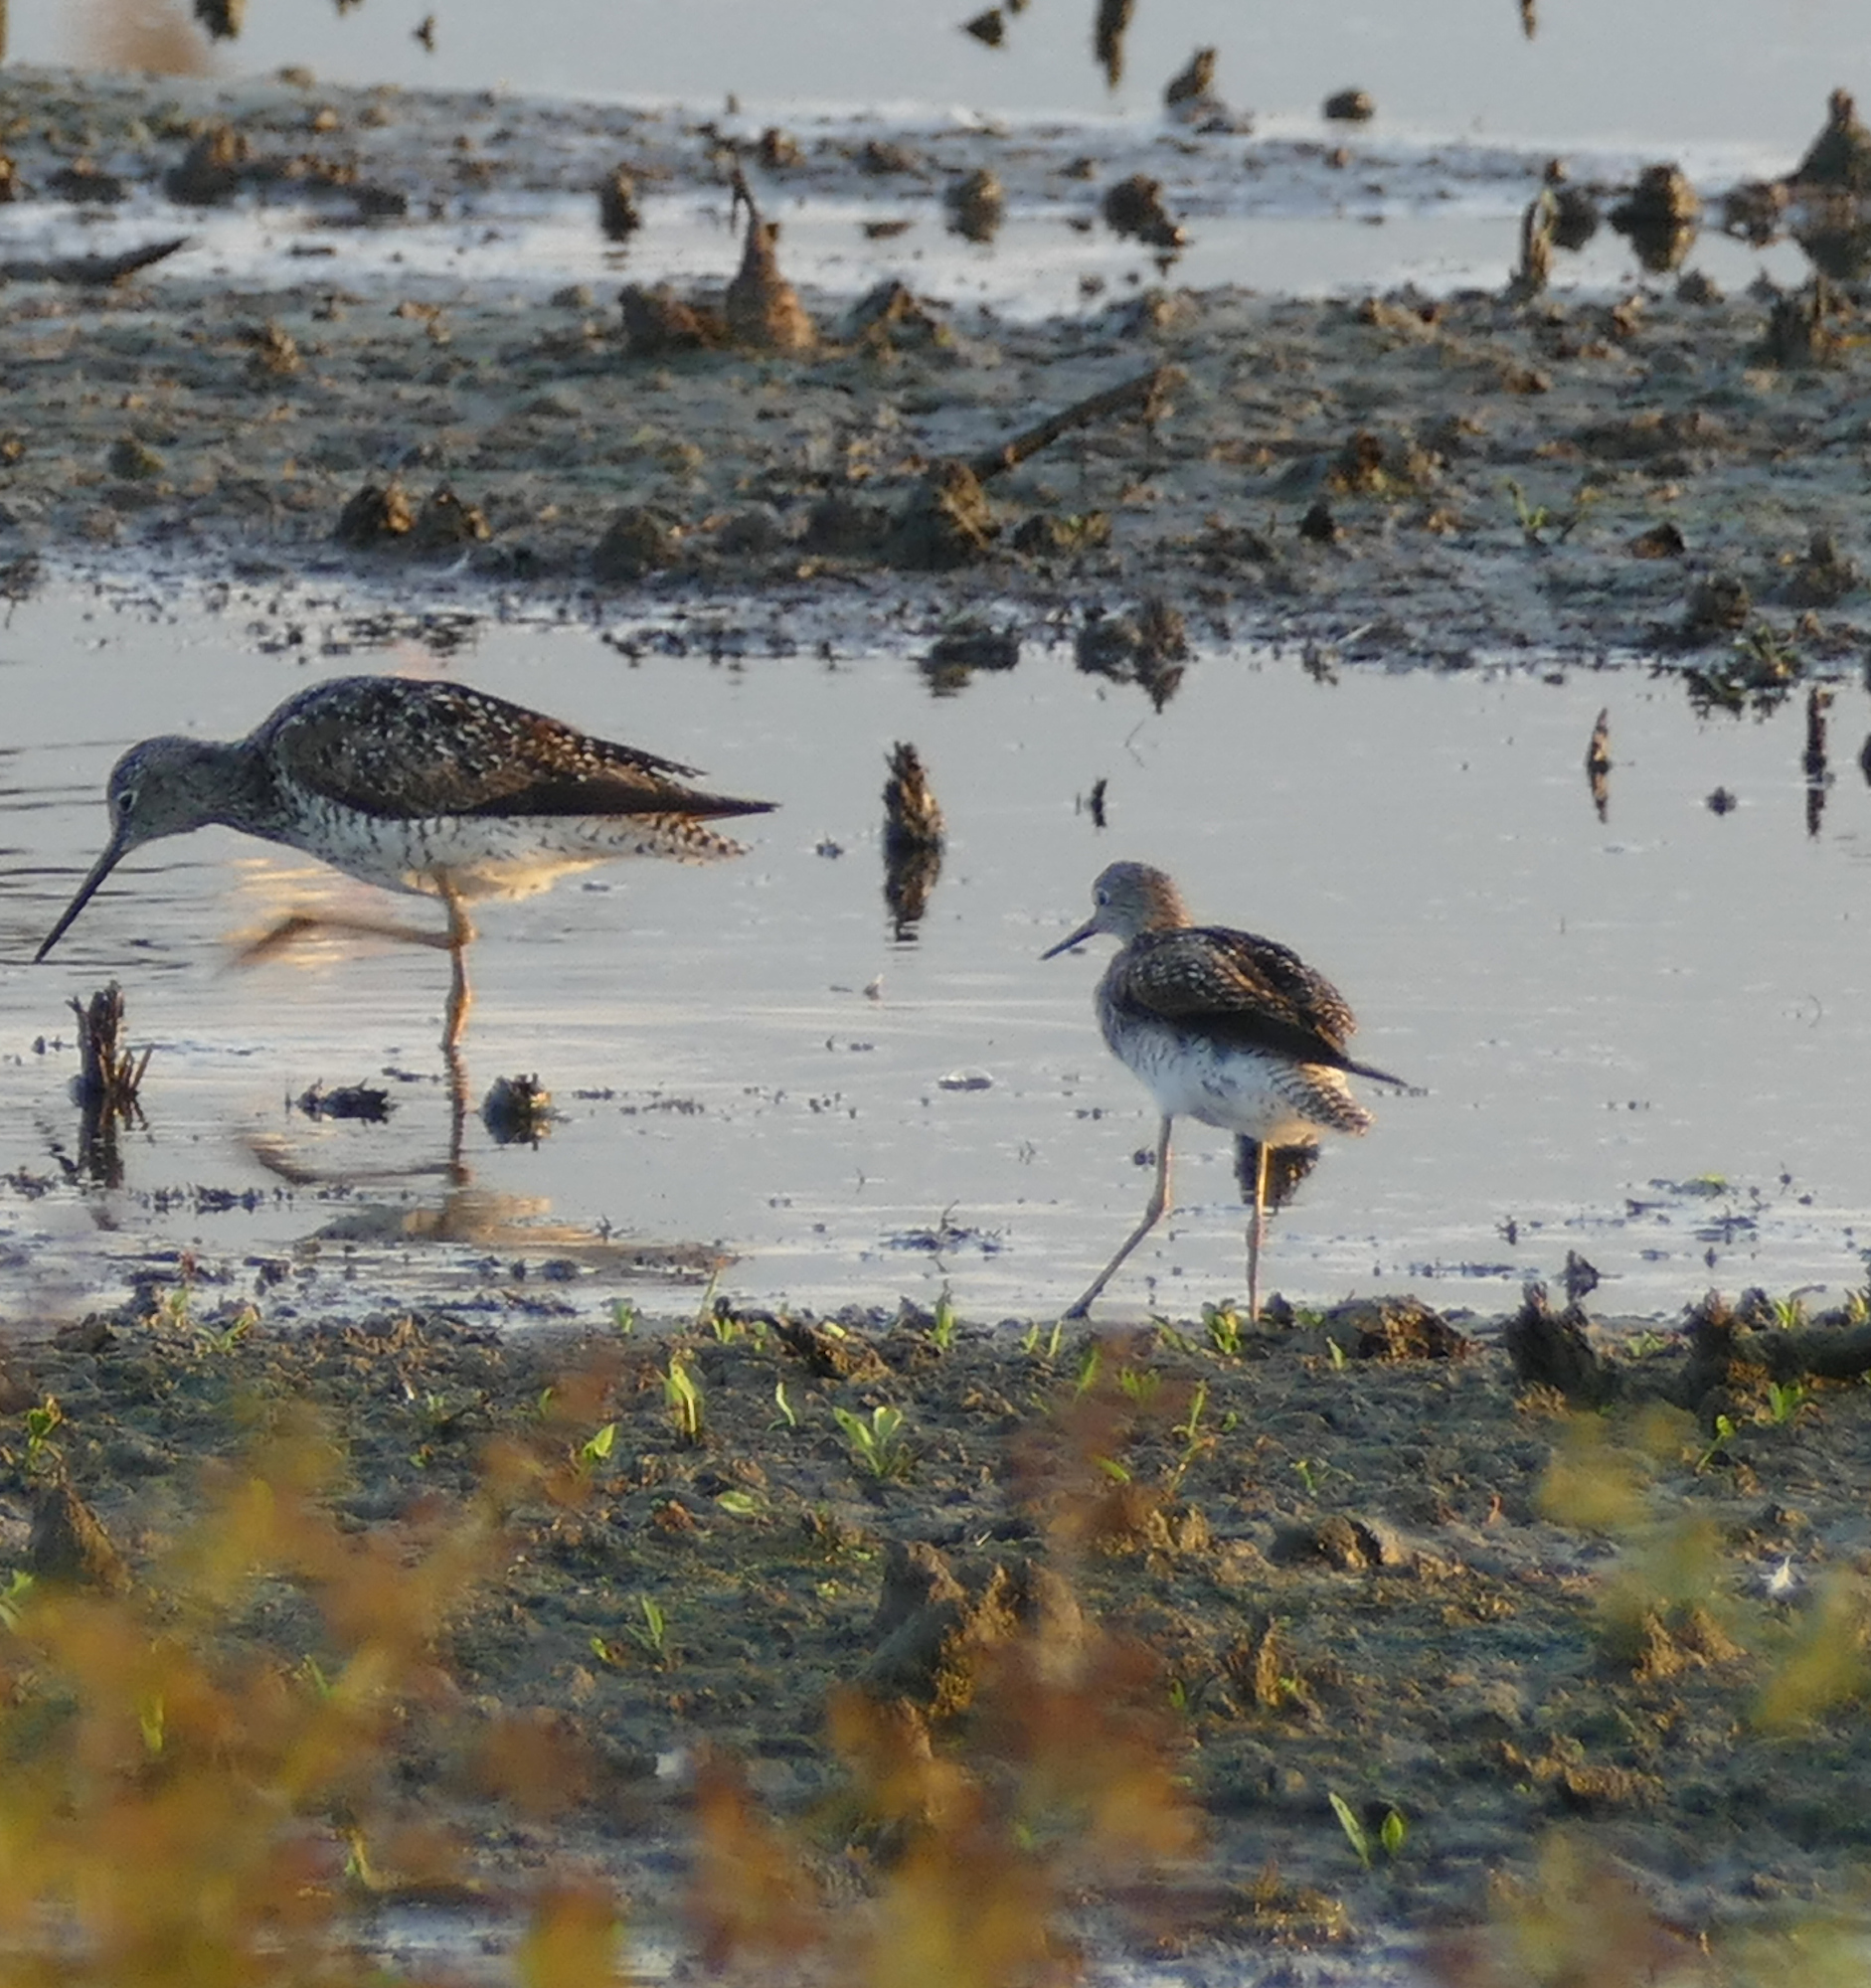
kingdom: Animalia
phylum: Chordata
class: Aves
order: Charadriiformes
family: Scolopacidae
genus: Tringa
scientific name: Tringa flavipes
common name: Lesser yellowlegs
